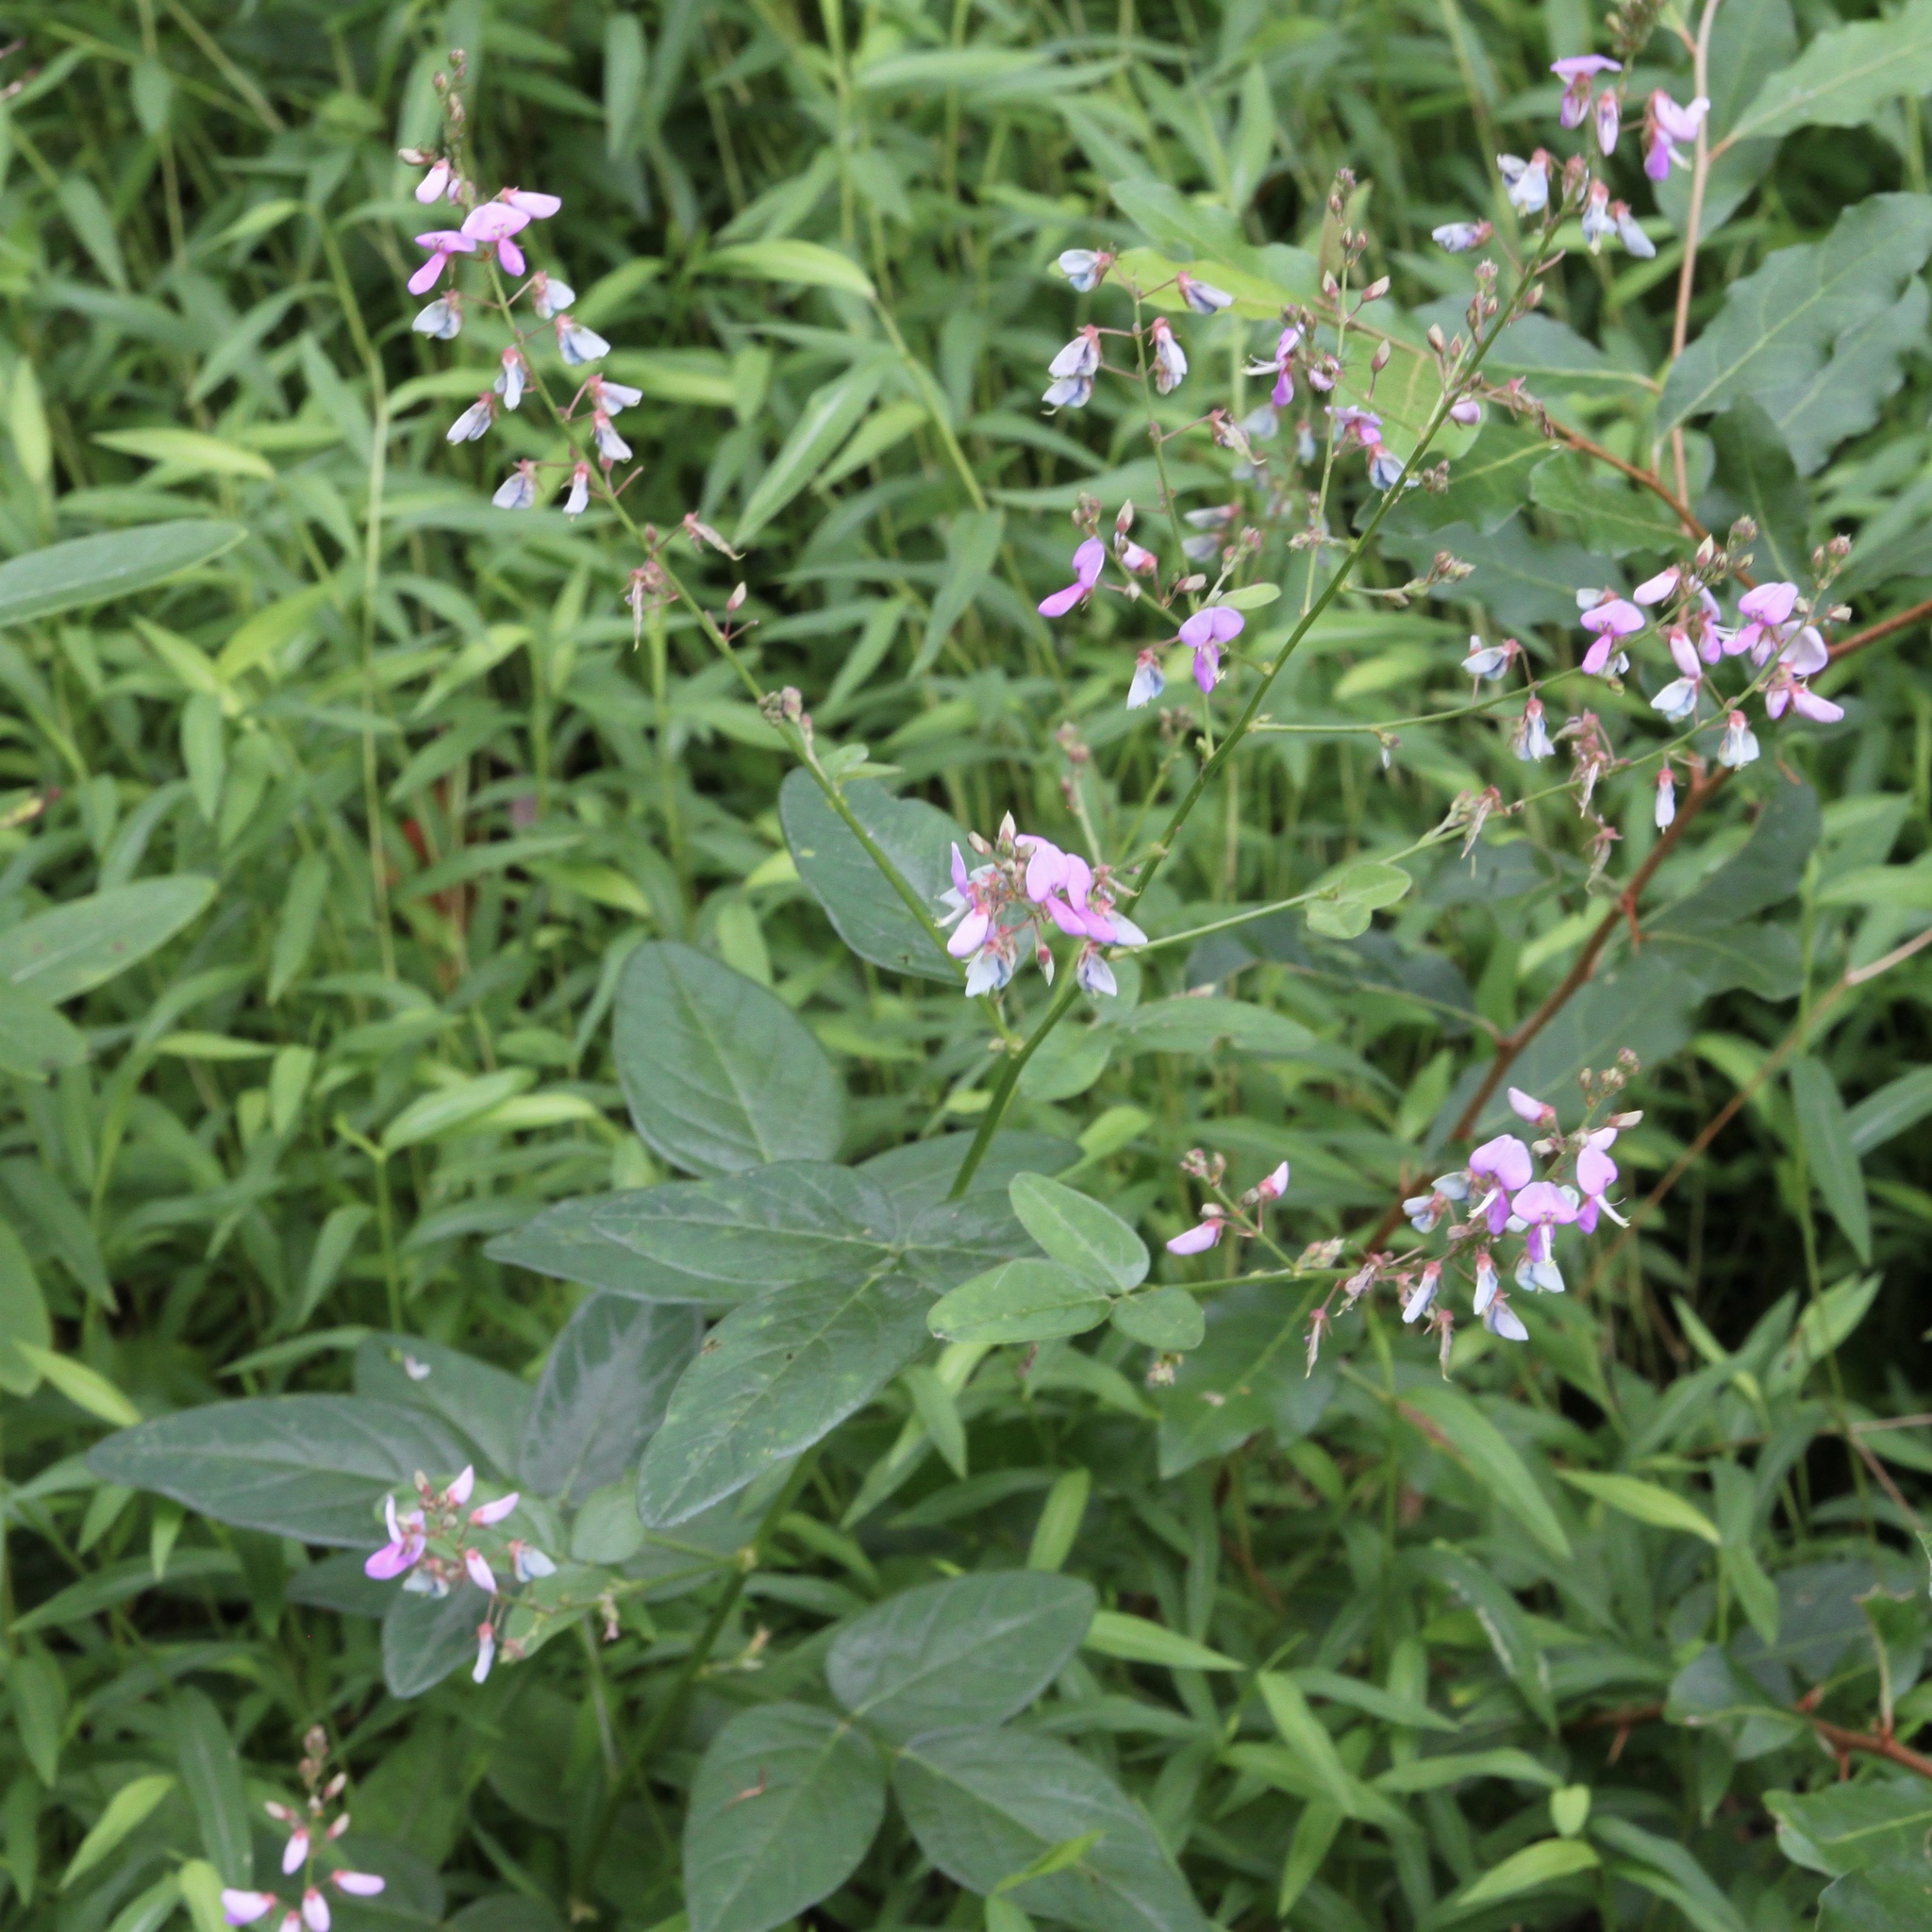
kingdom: Plantae
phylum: Tracheophyta
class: Magnoliopsida
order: Fabales
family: Fabaceae
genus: Desmodium
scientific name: Desmodium glabellum
